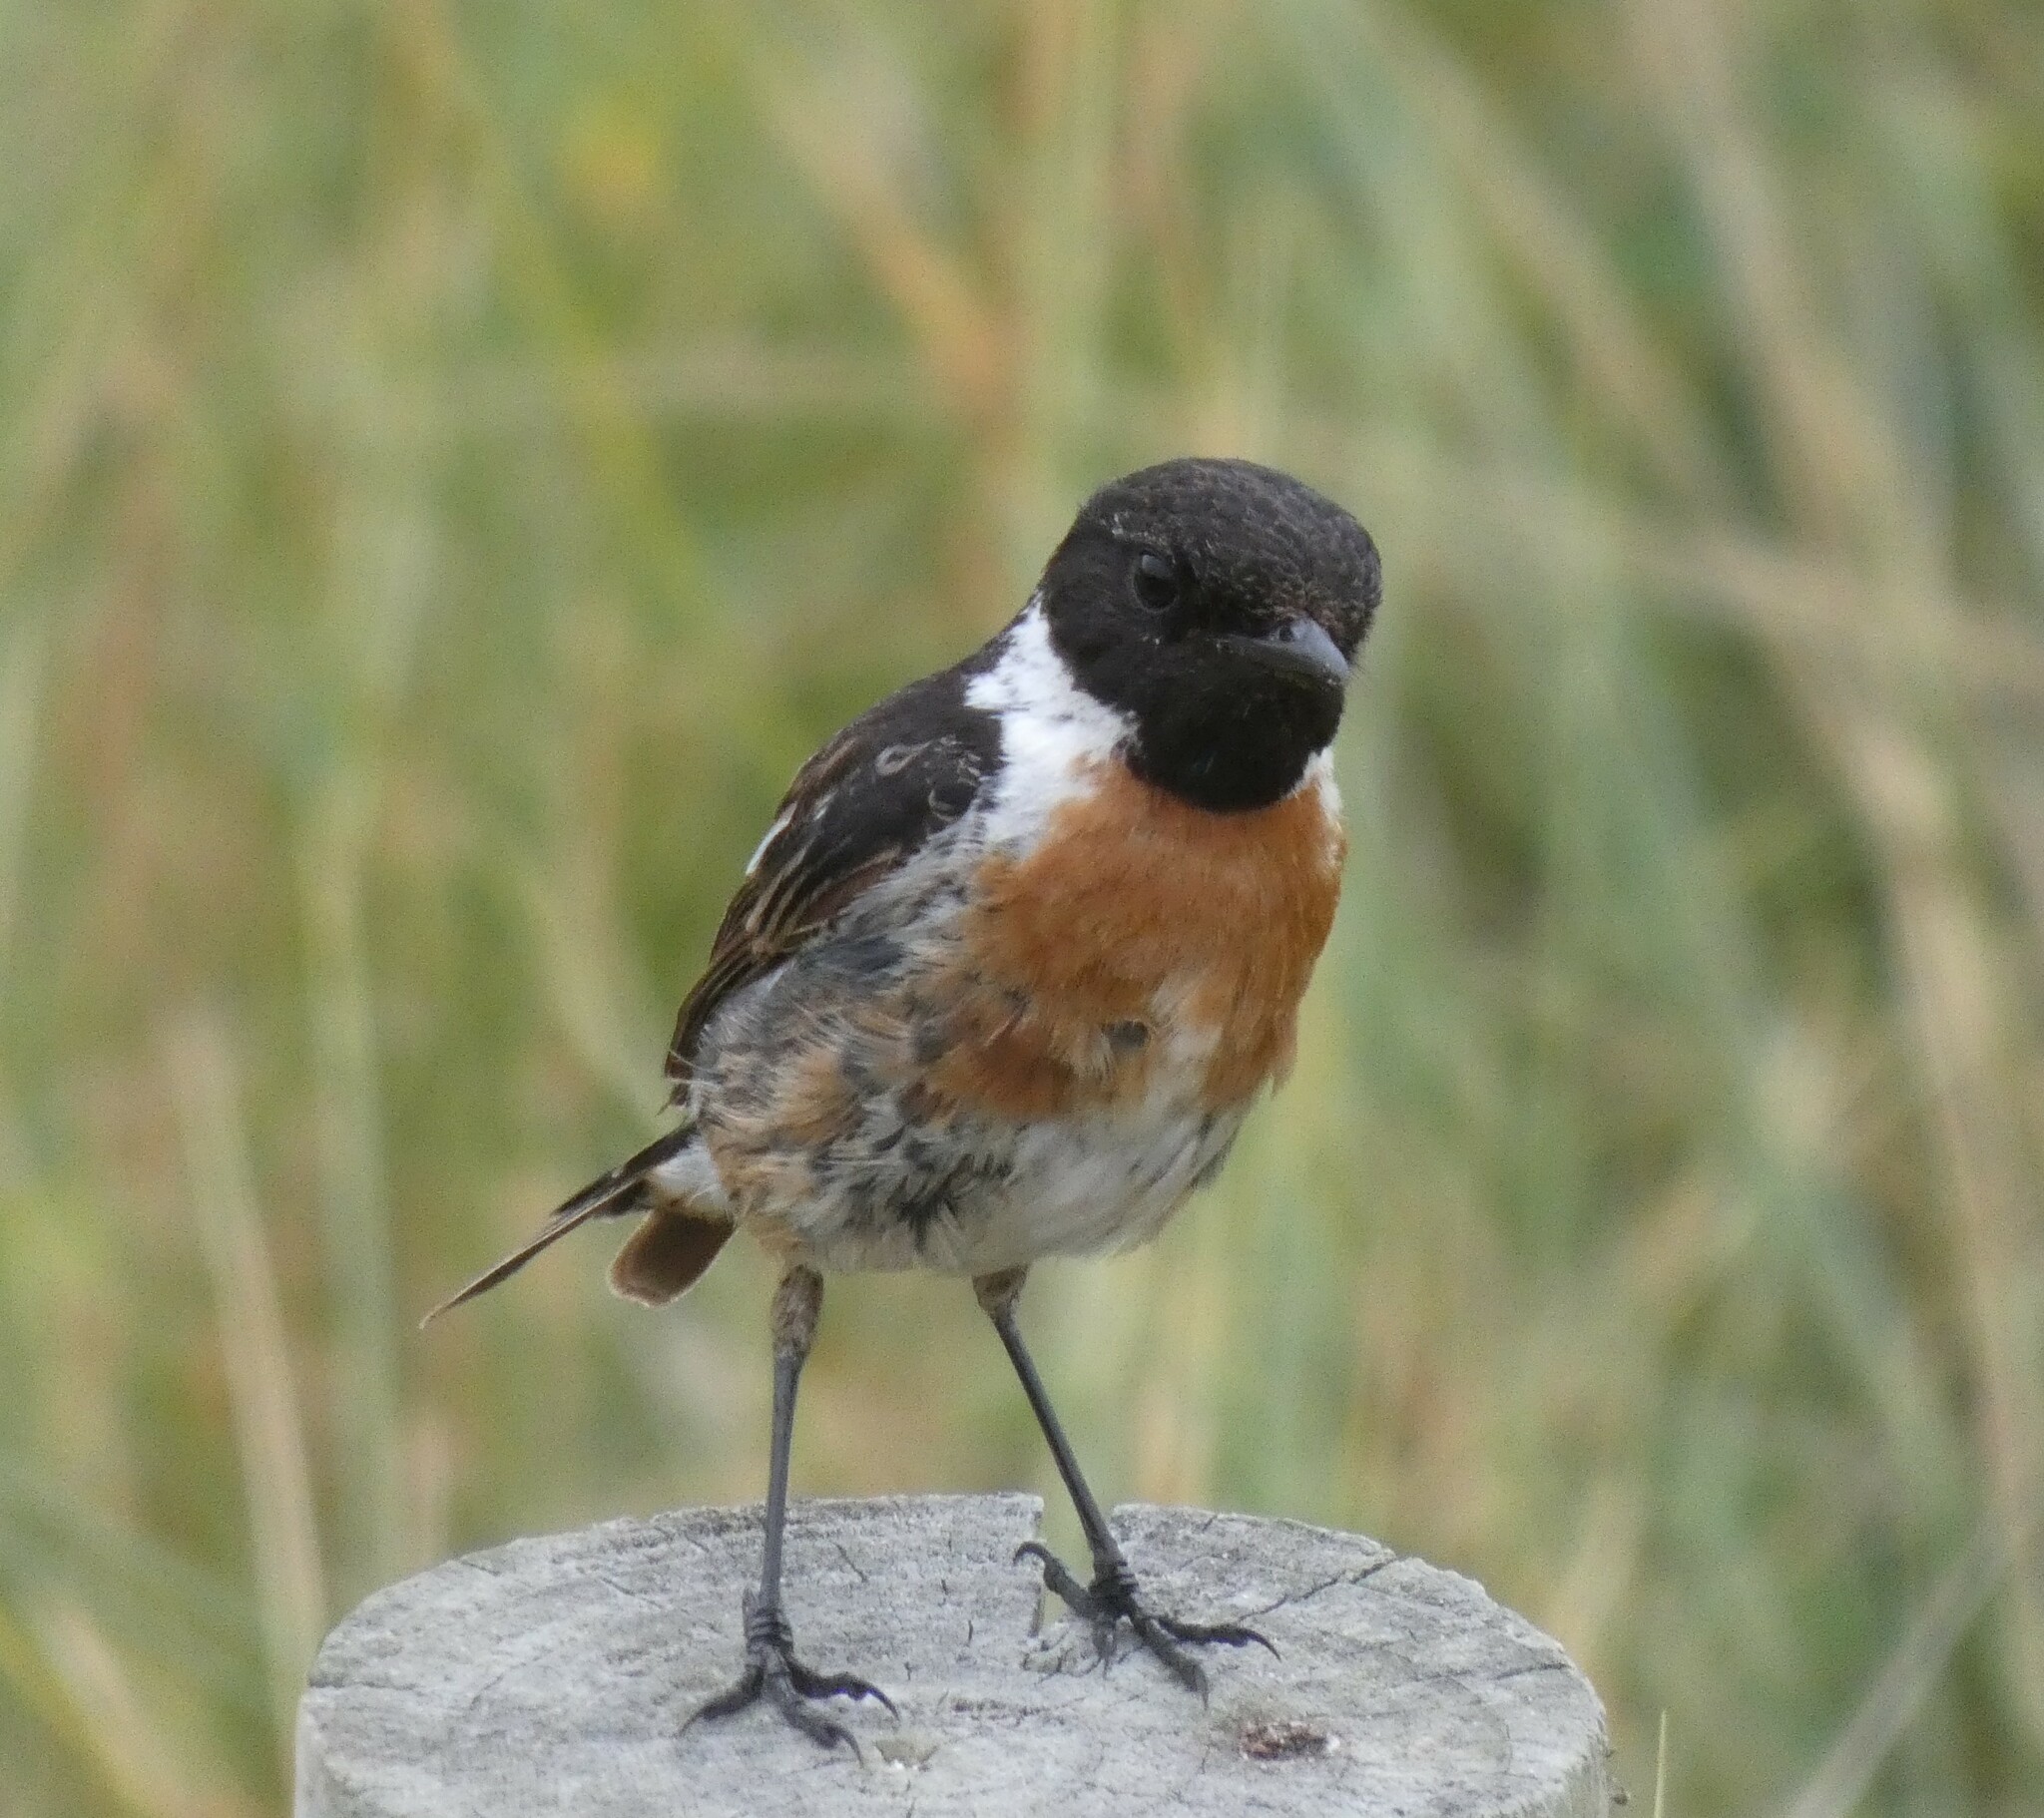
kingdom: Animalia
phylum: Chordata
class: Aves
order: Passeriformes
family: Muscicapidae
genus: Saxicola
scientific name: Saxicola rubicola
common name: European stonechat
